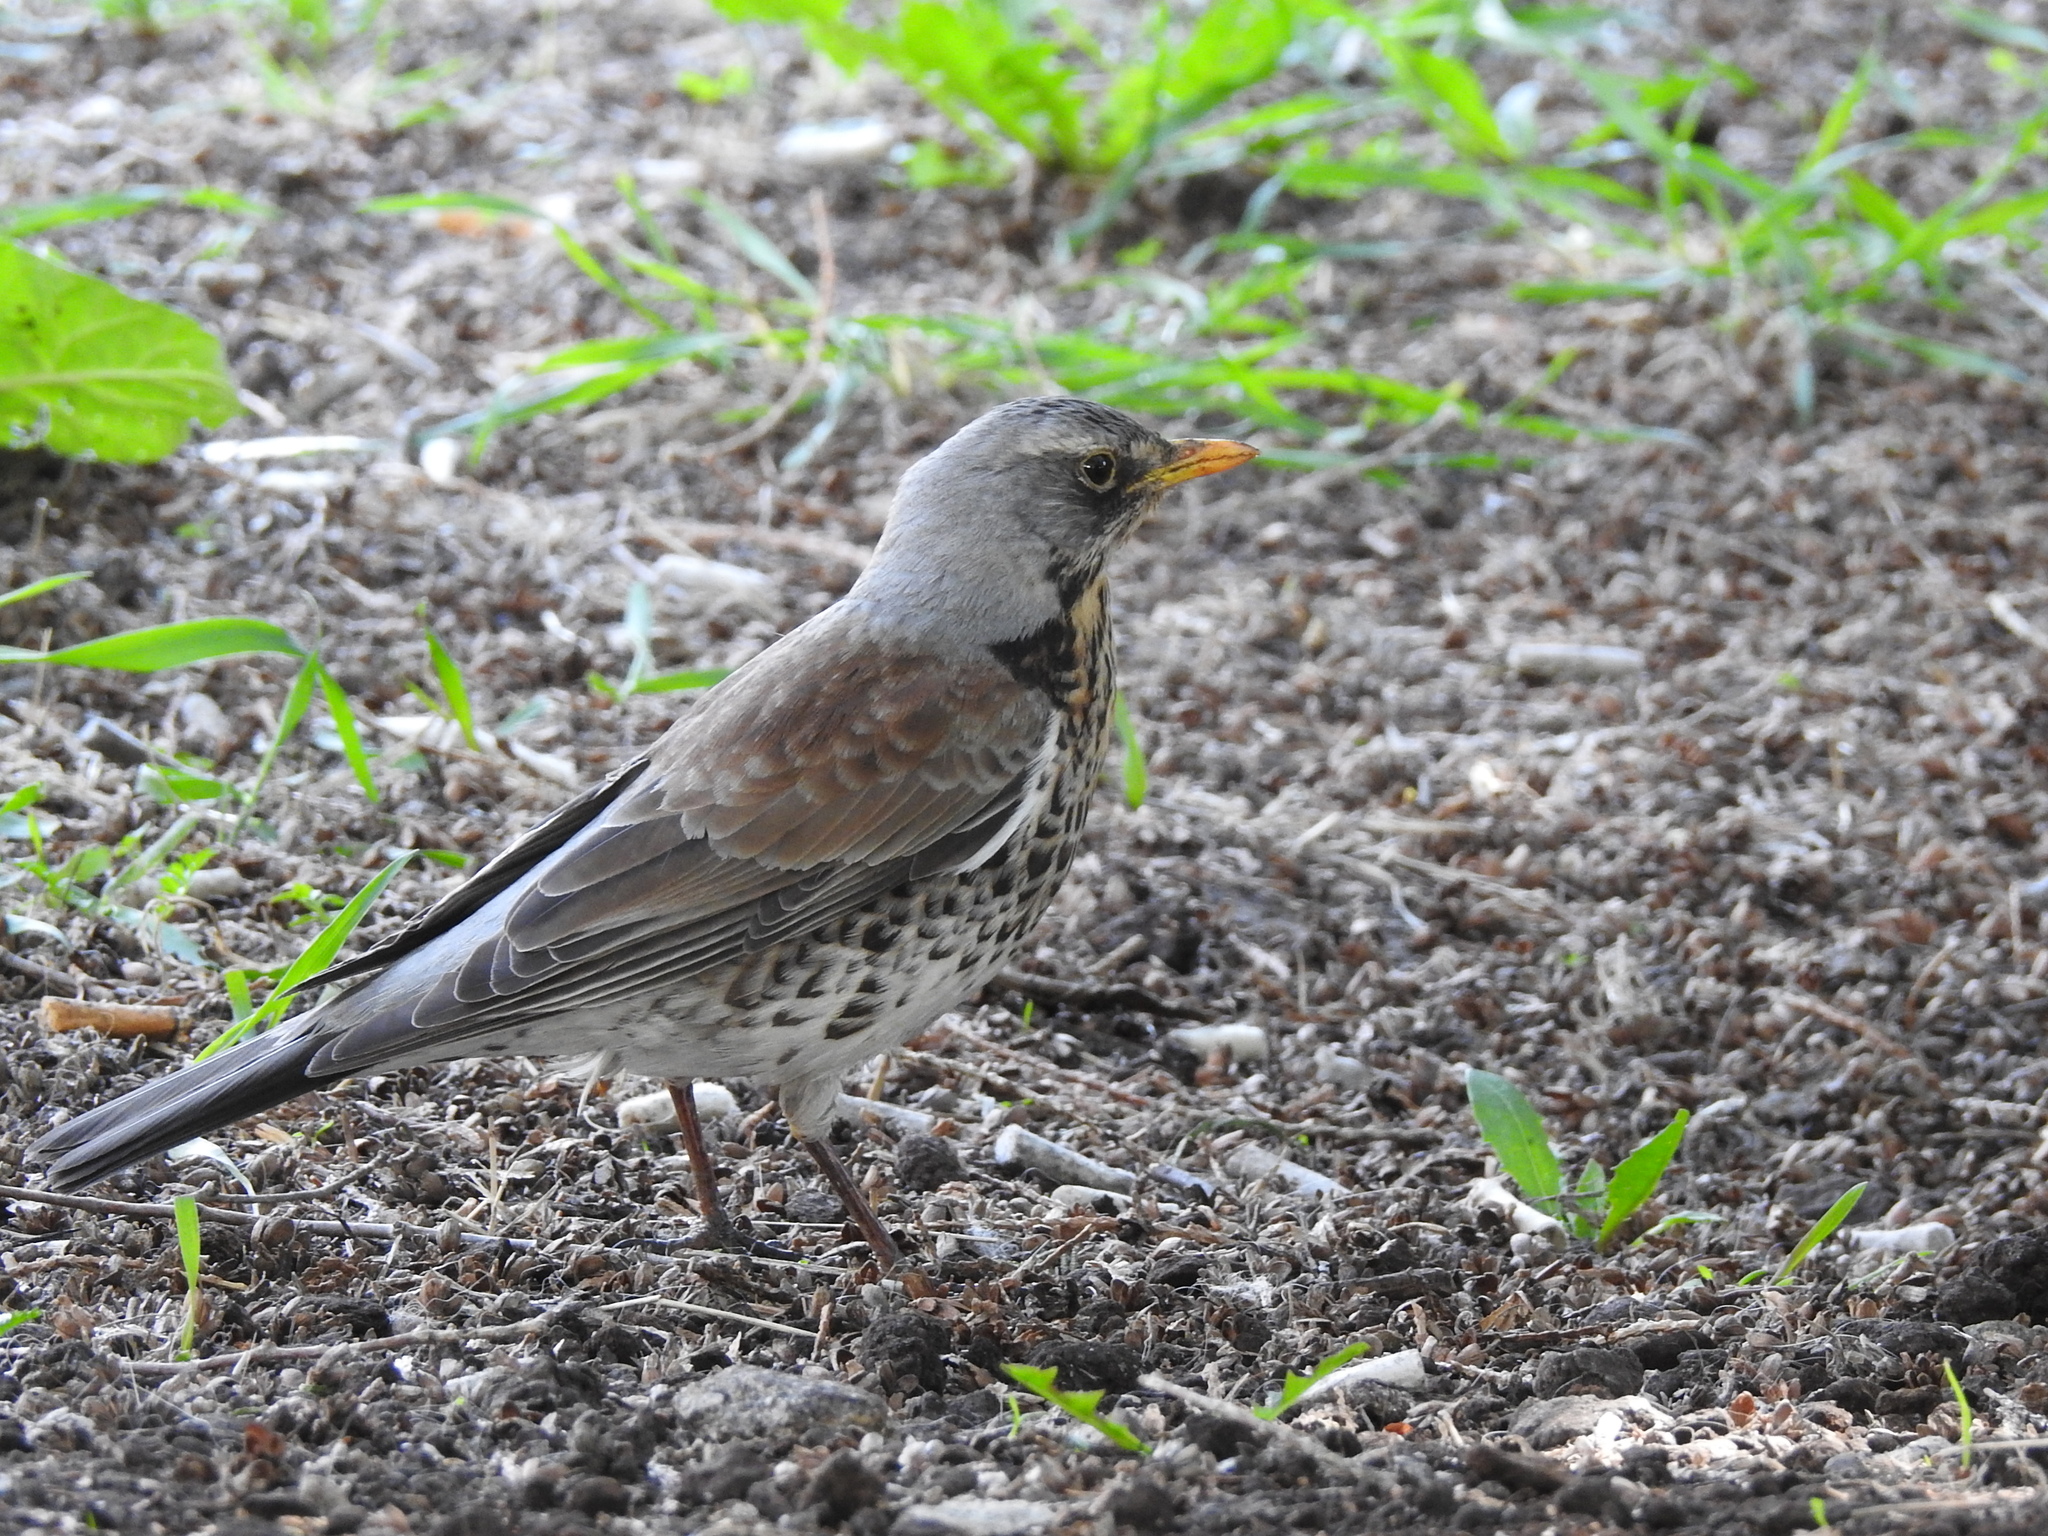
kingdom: Animalia
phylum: Chordata
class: Aves
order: Passeriformes
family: Turdidae
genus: Turdus
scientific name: Turdus pilaris
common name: Fieldfare
